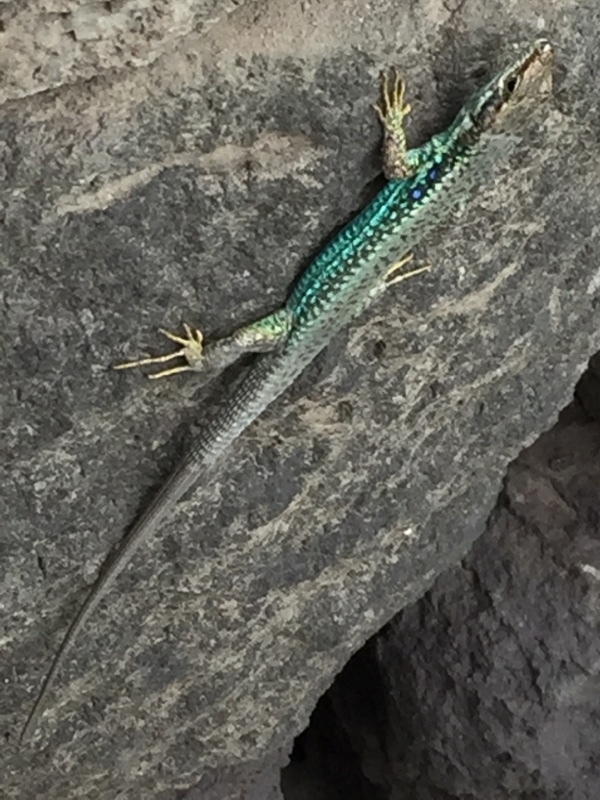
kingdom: Animalia
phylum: Chordata
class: Squamata
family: Lacertidae
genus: Darevskia
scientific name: Darevskia raddei
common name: Radde's lizard
